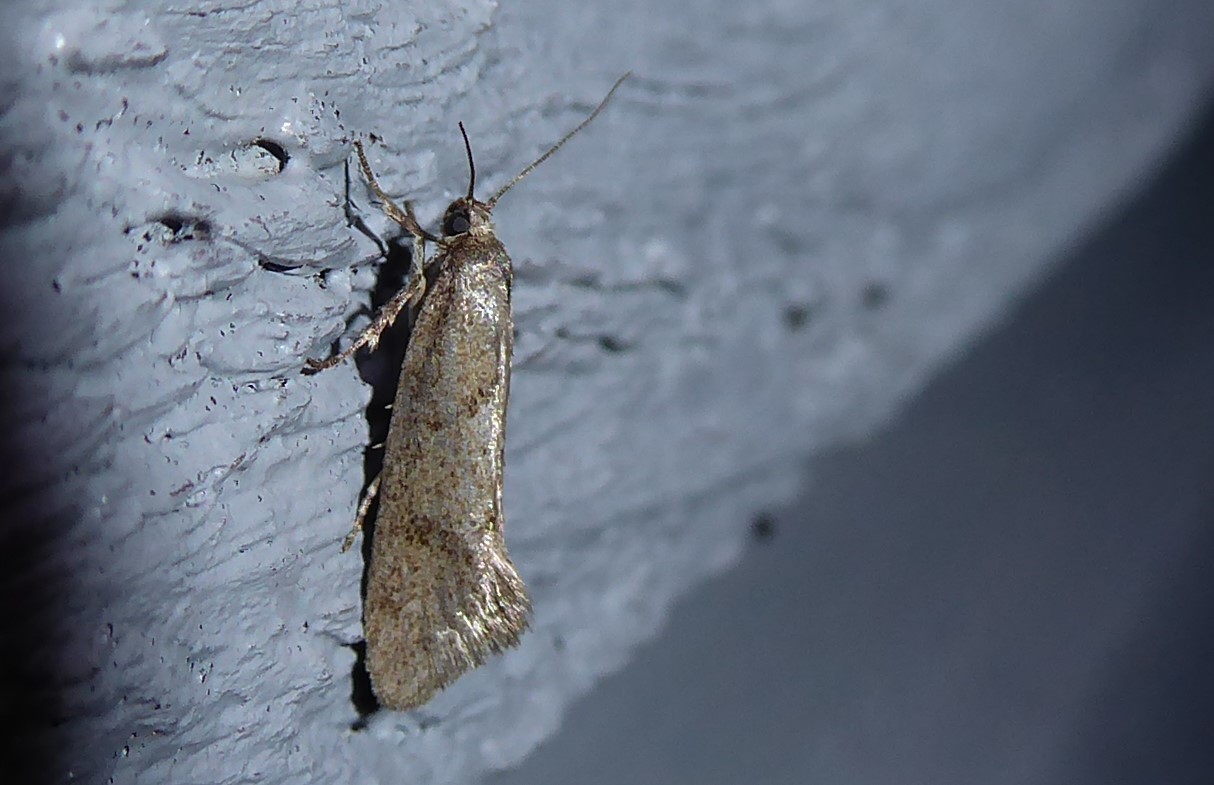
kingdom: Animalia
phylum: Arthropoda
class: Insecta
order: Lepidoptera
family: Oecophoridae
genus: Tingena
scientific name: Tingena brachyacma
